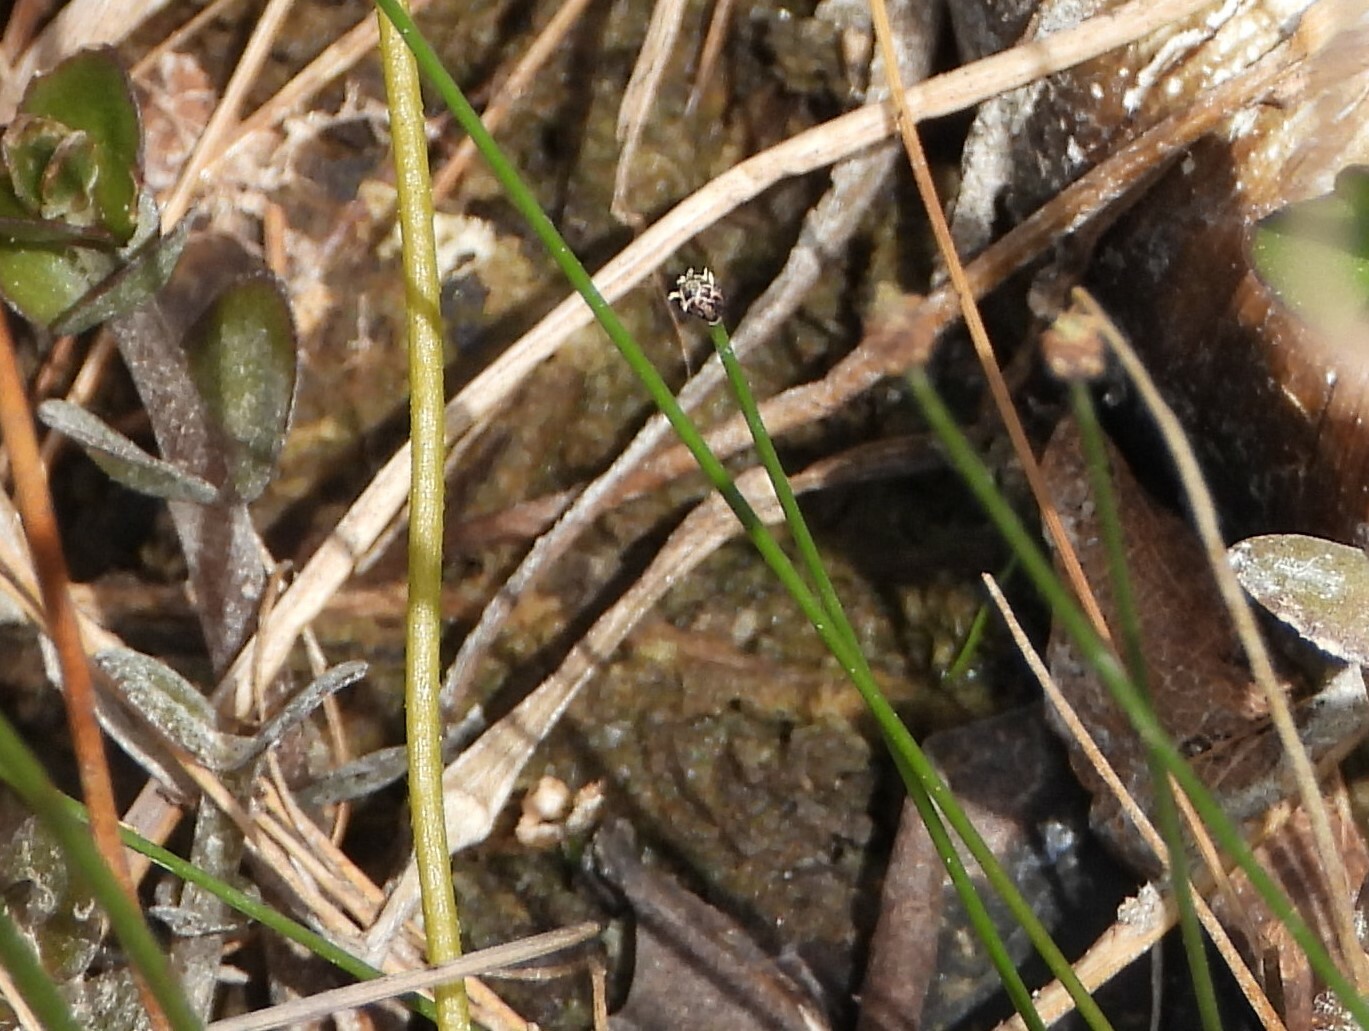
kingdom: Plantae
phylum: Tracheophyta
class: Liliopsida
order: Poales
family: Cyperaceae
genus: Eleocharis
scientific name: Eleocharis geniculata
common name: Canada spikesedge
